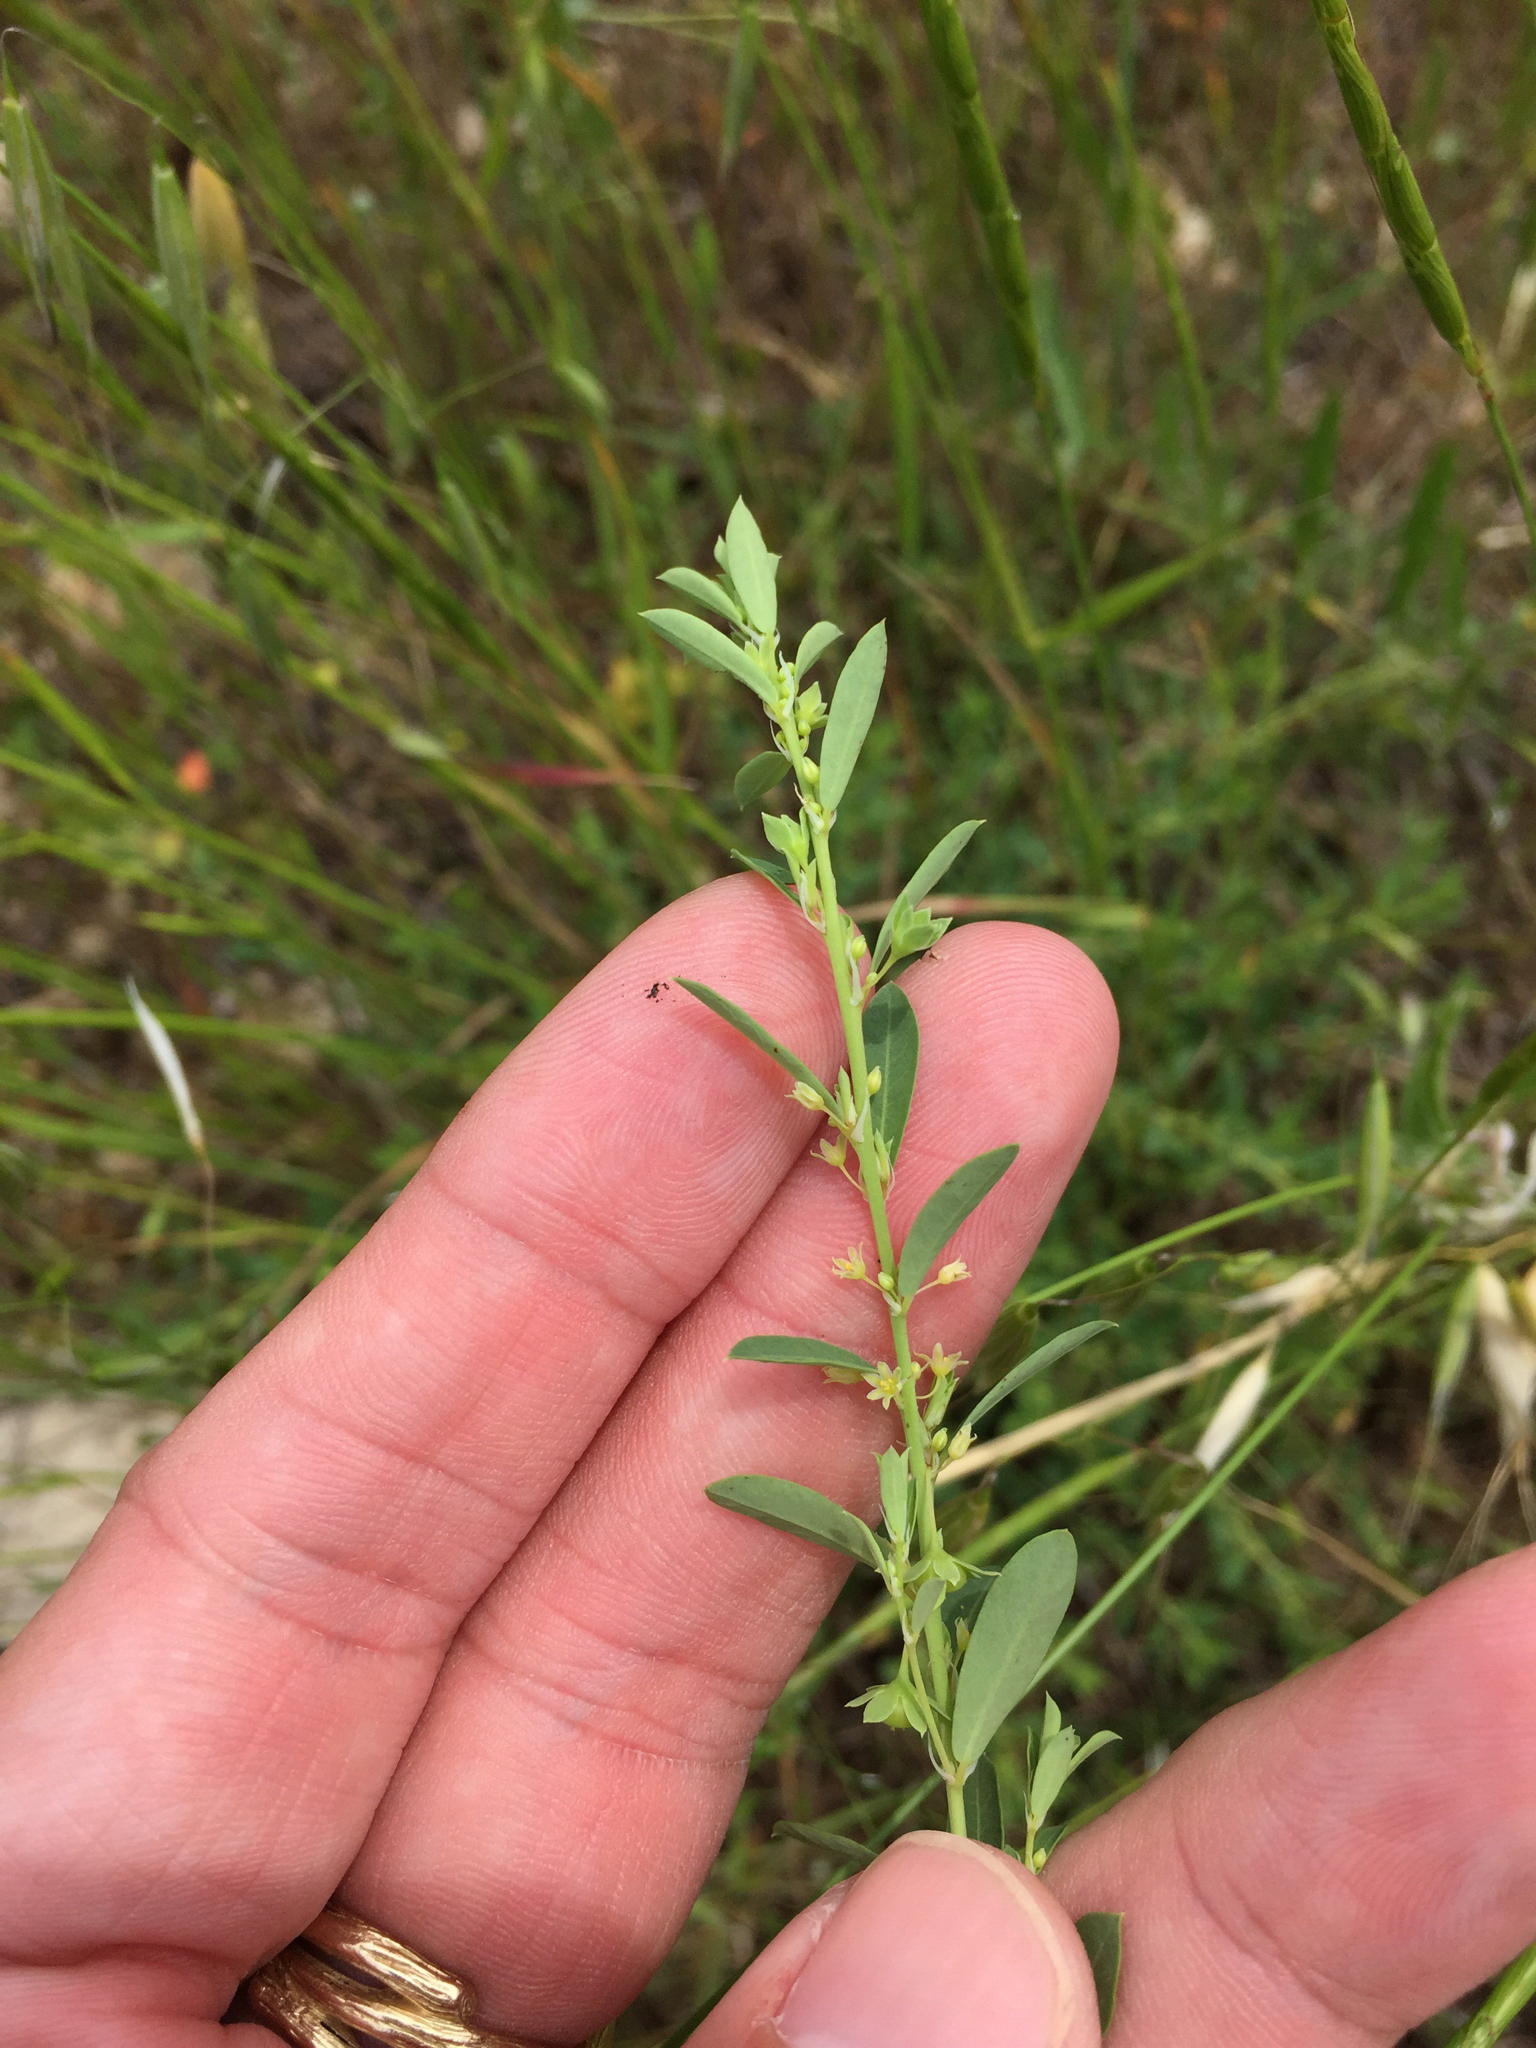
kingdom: Plantae
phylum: Tracheophyta
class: Magnoliopsida
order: Malpighiales
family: Phyllanthaceae
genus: Phyllanthus
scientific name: Phyllanthus polygonoides
